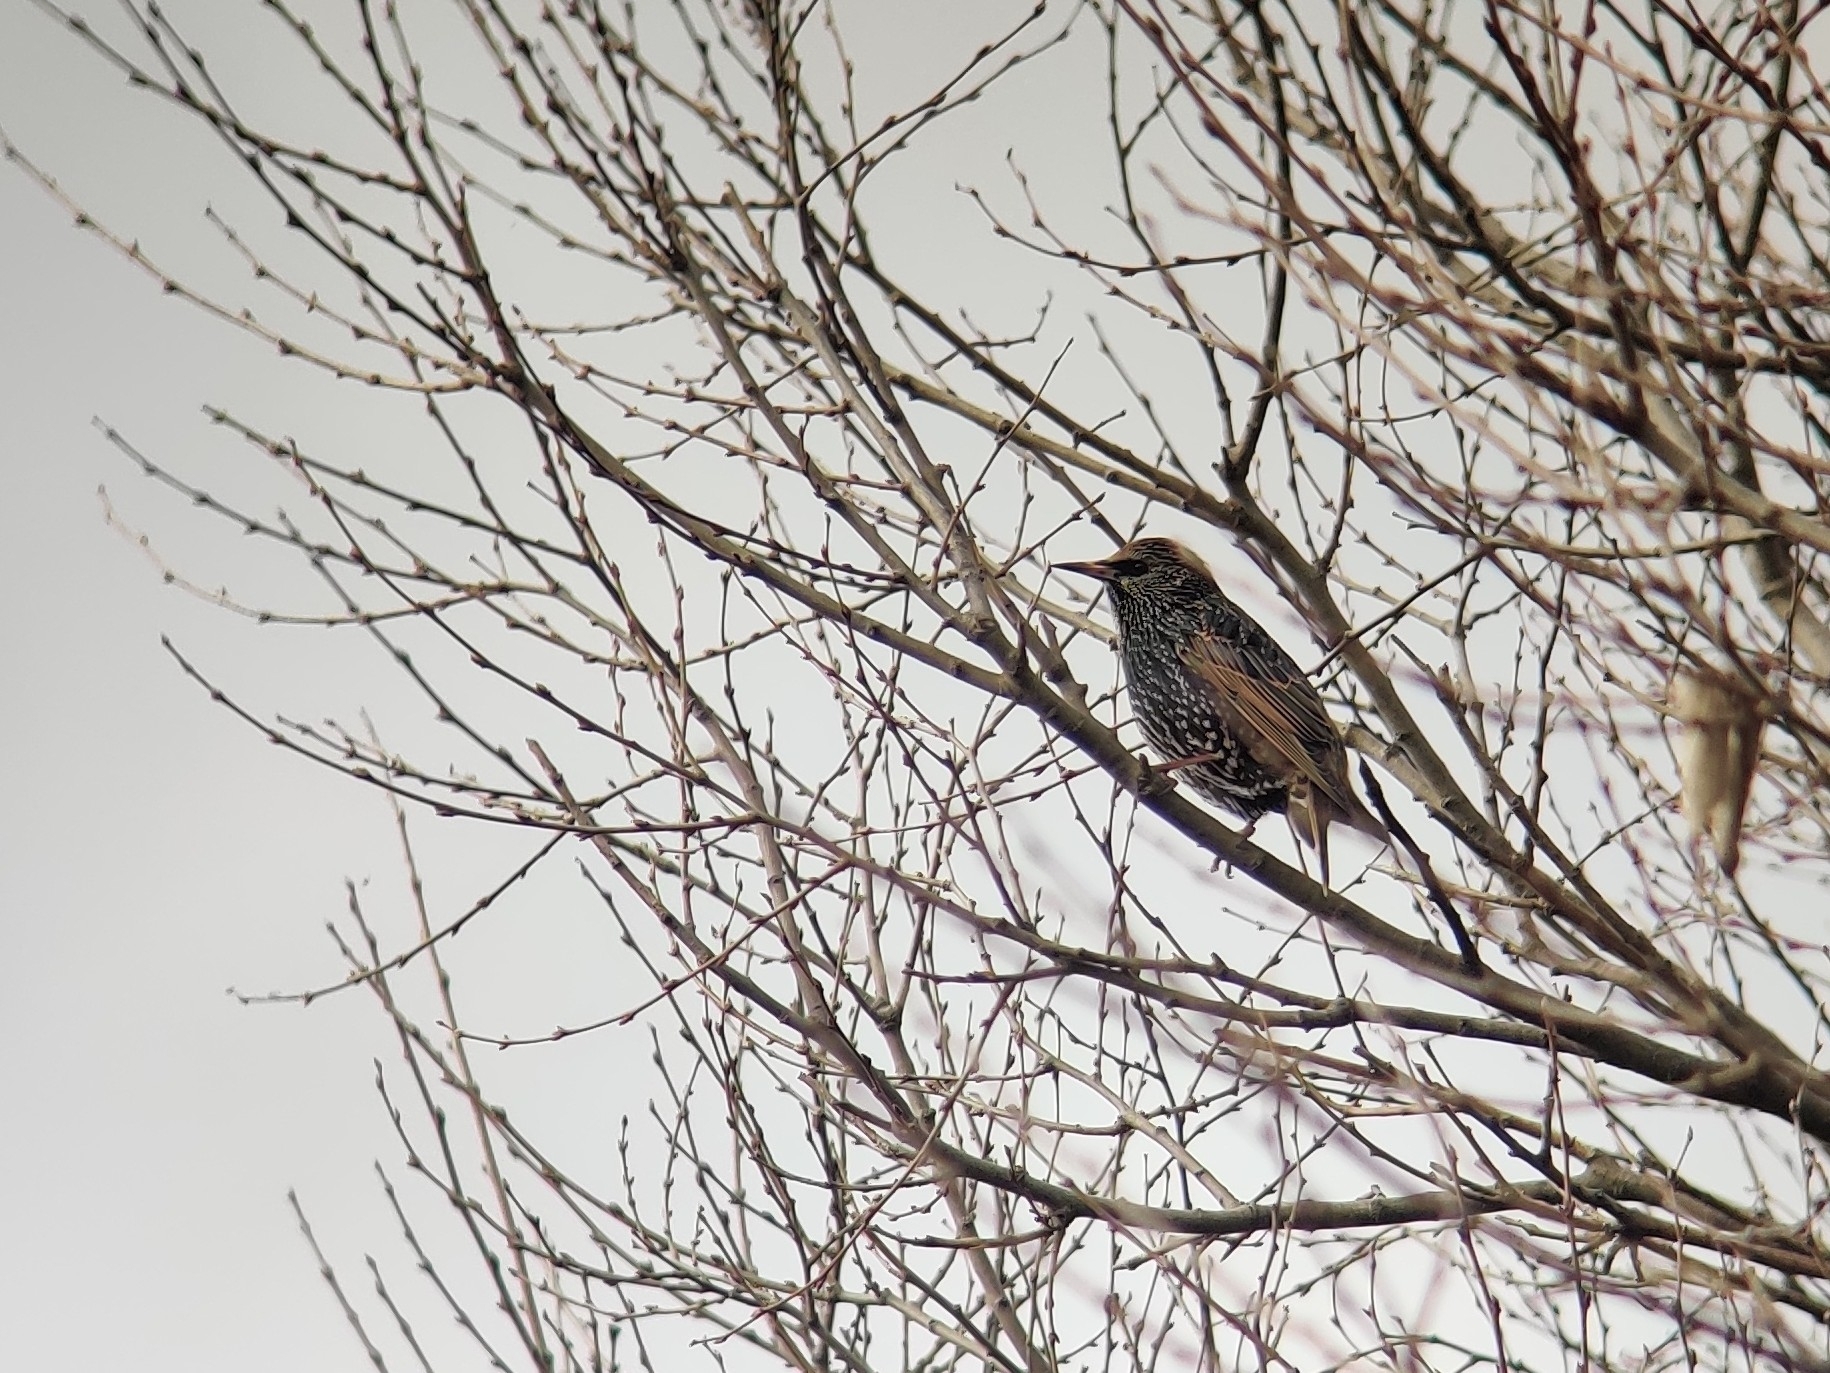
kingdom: Animalia
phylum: Chordata
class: Aves
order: Passeriformes
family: Sturnidae
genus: Sturnus
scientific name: Sturnus vulgaris
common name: Common starling
